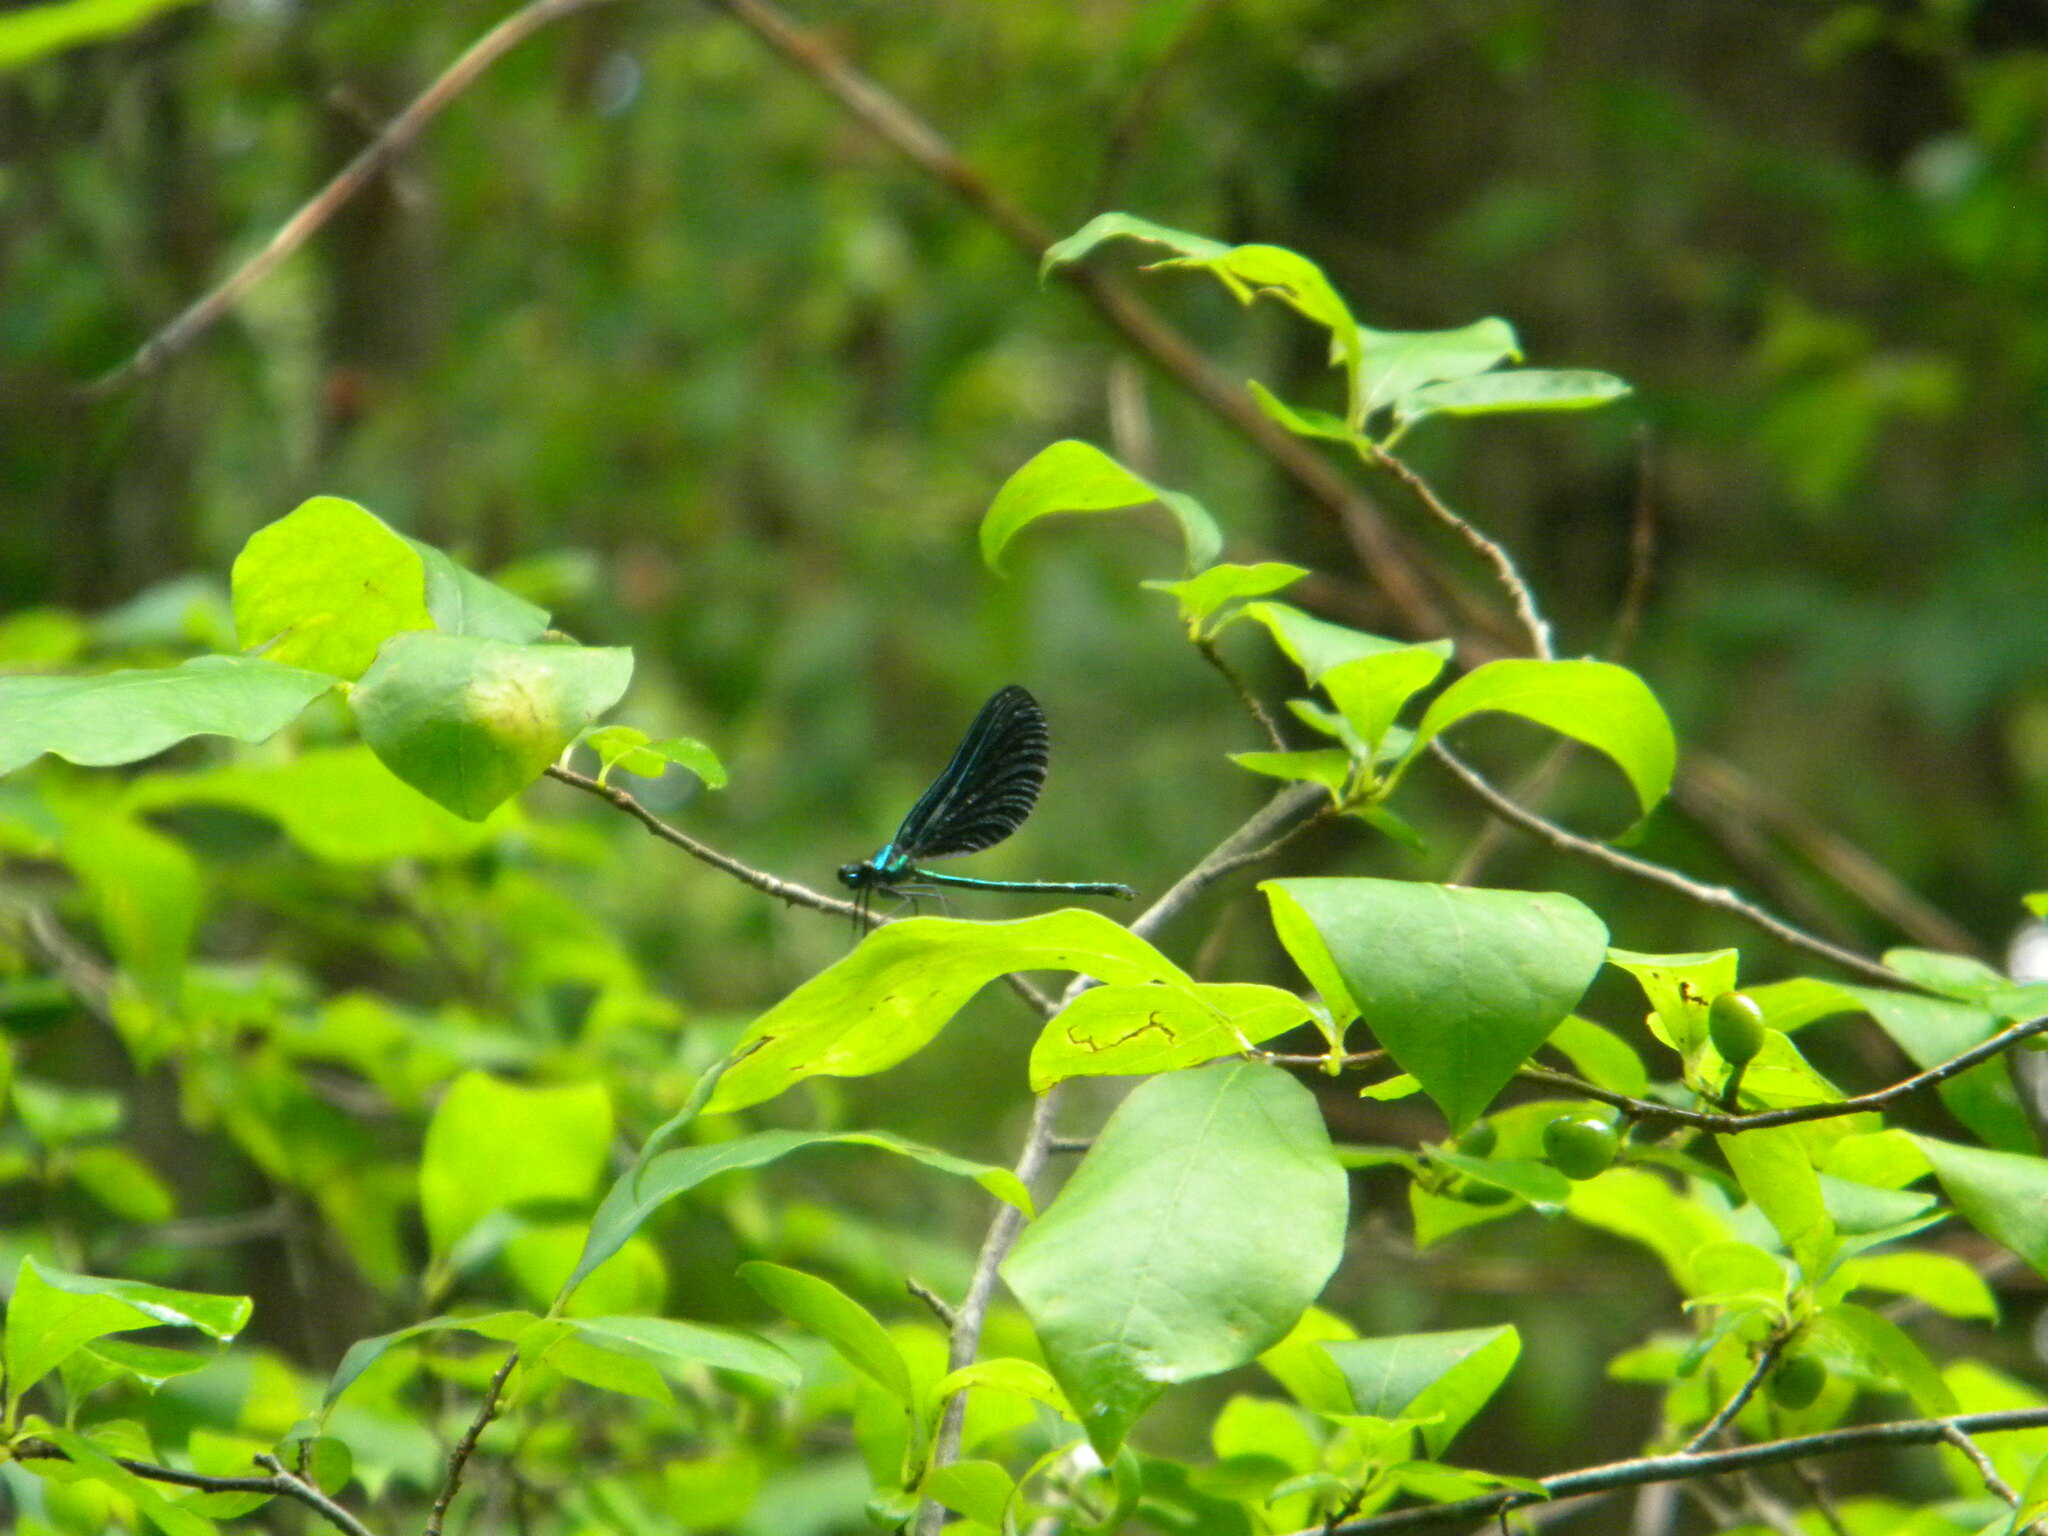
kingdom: Animalia
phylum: Arthropoda
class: Insecta
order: Odonata
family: Calopterygidae
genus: Calopteryx
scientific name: Calopteryx maculata
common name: Ebony jewelwing
